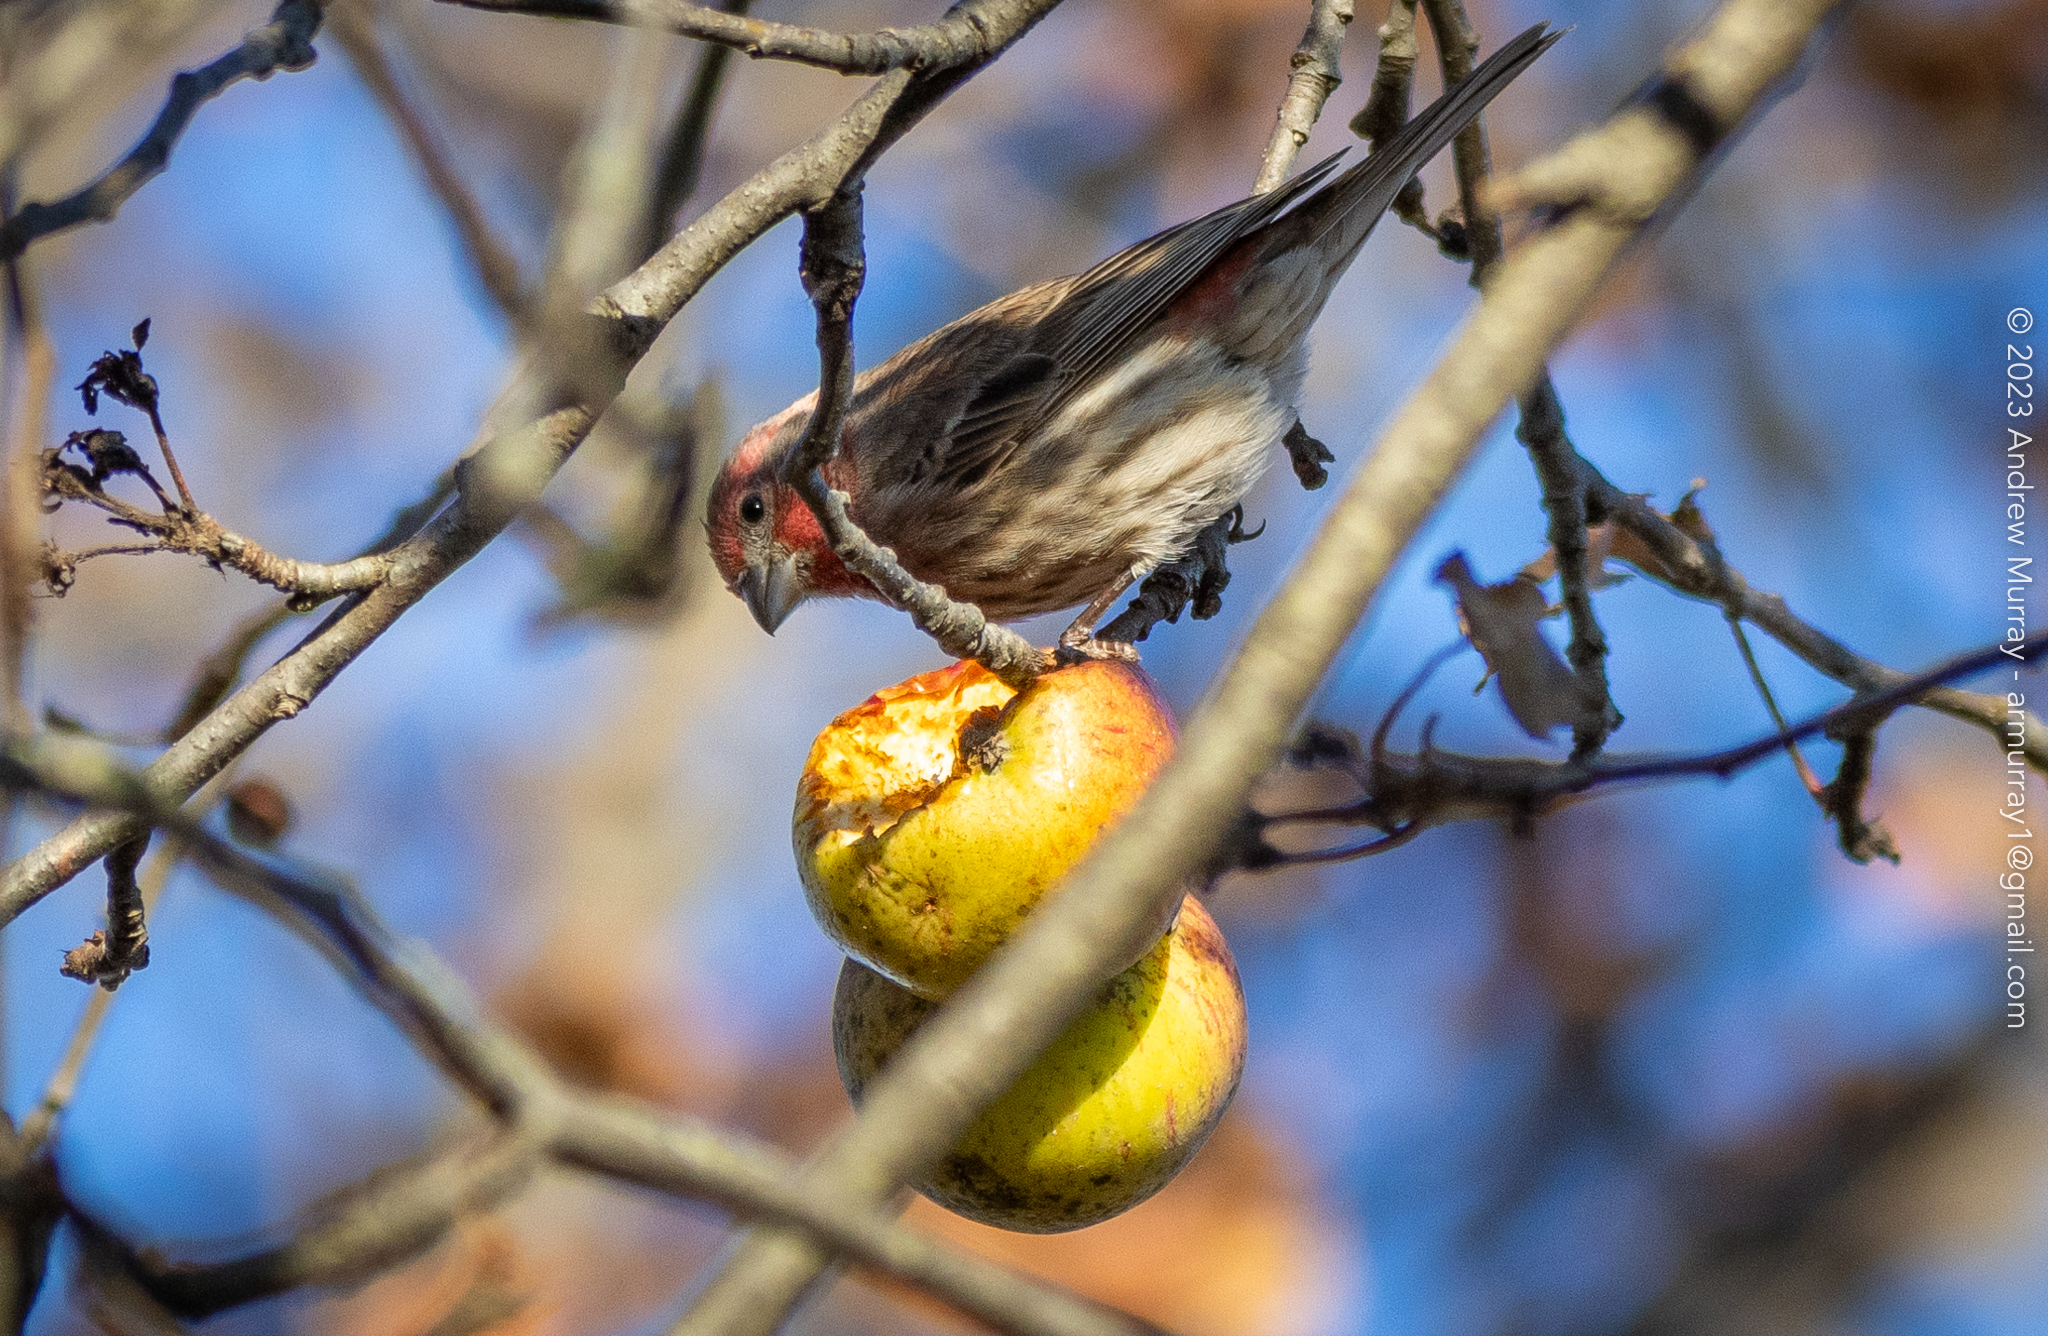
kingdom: Animalia
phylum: Chordata
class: Aves
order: Passeriformes
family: Fringillidae
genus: Haemorhous
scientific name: Haemorhous mexicanus
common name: House finch
